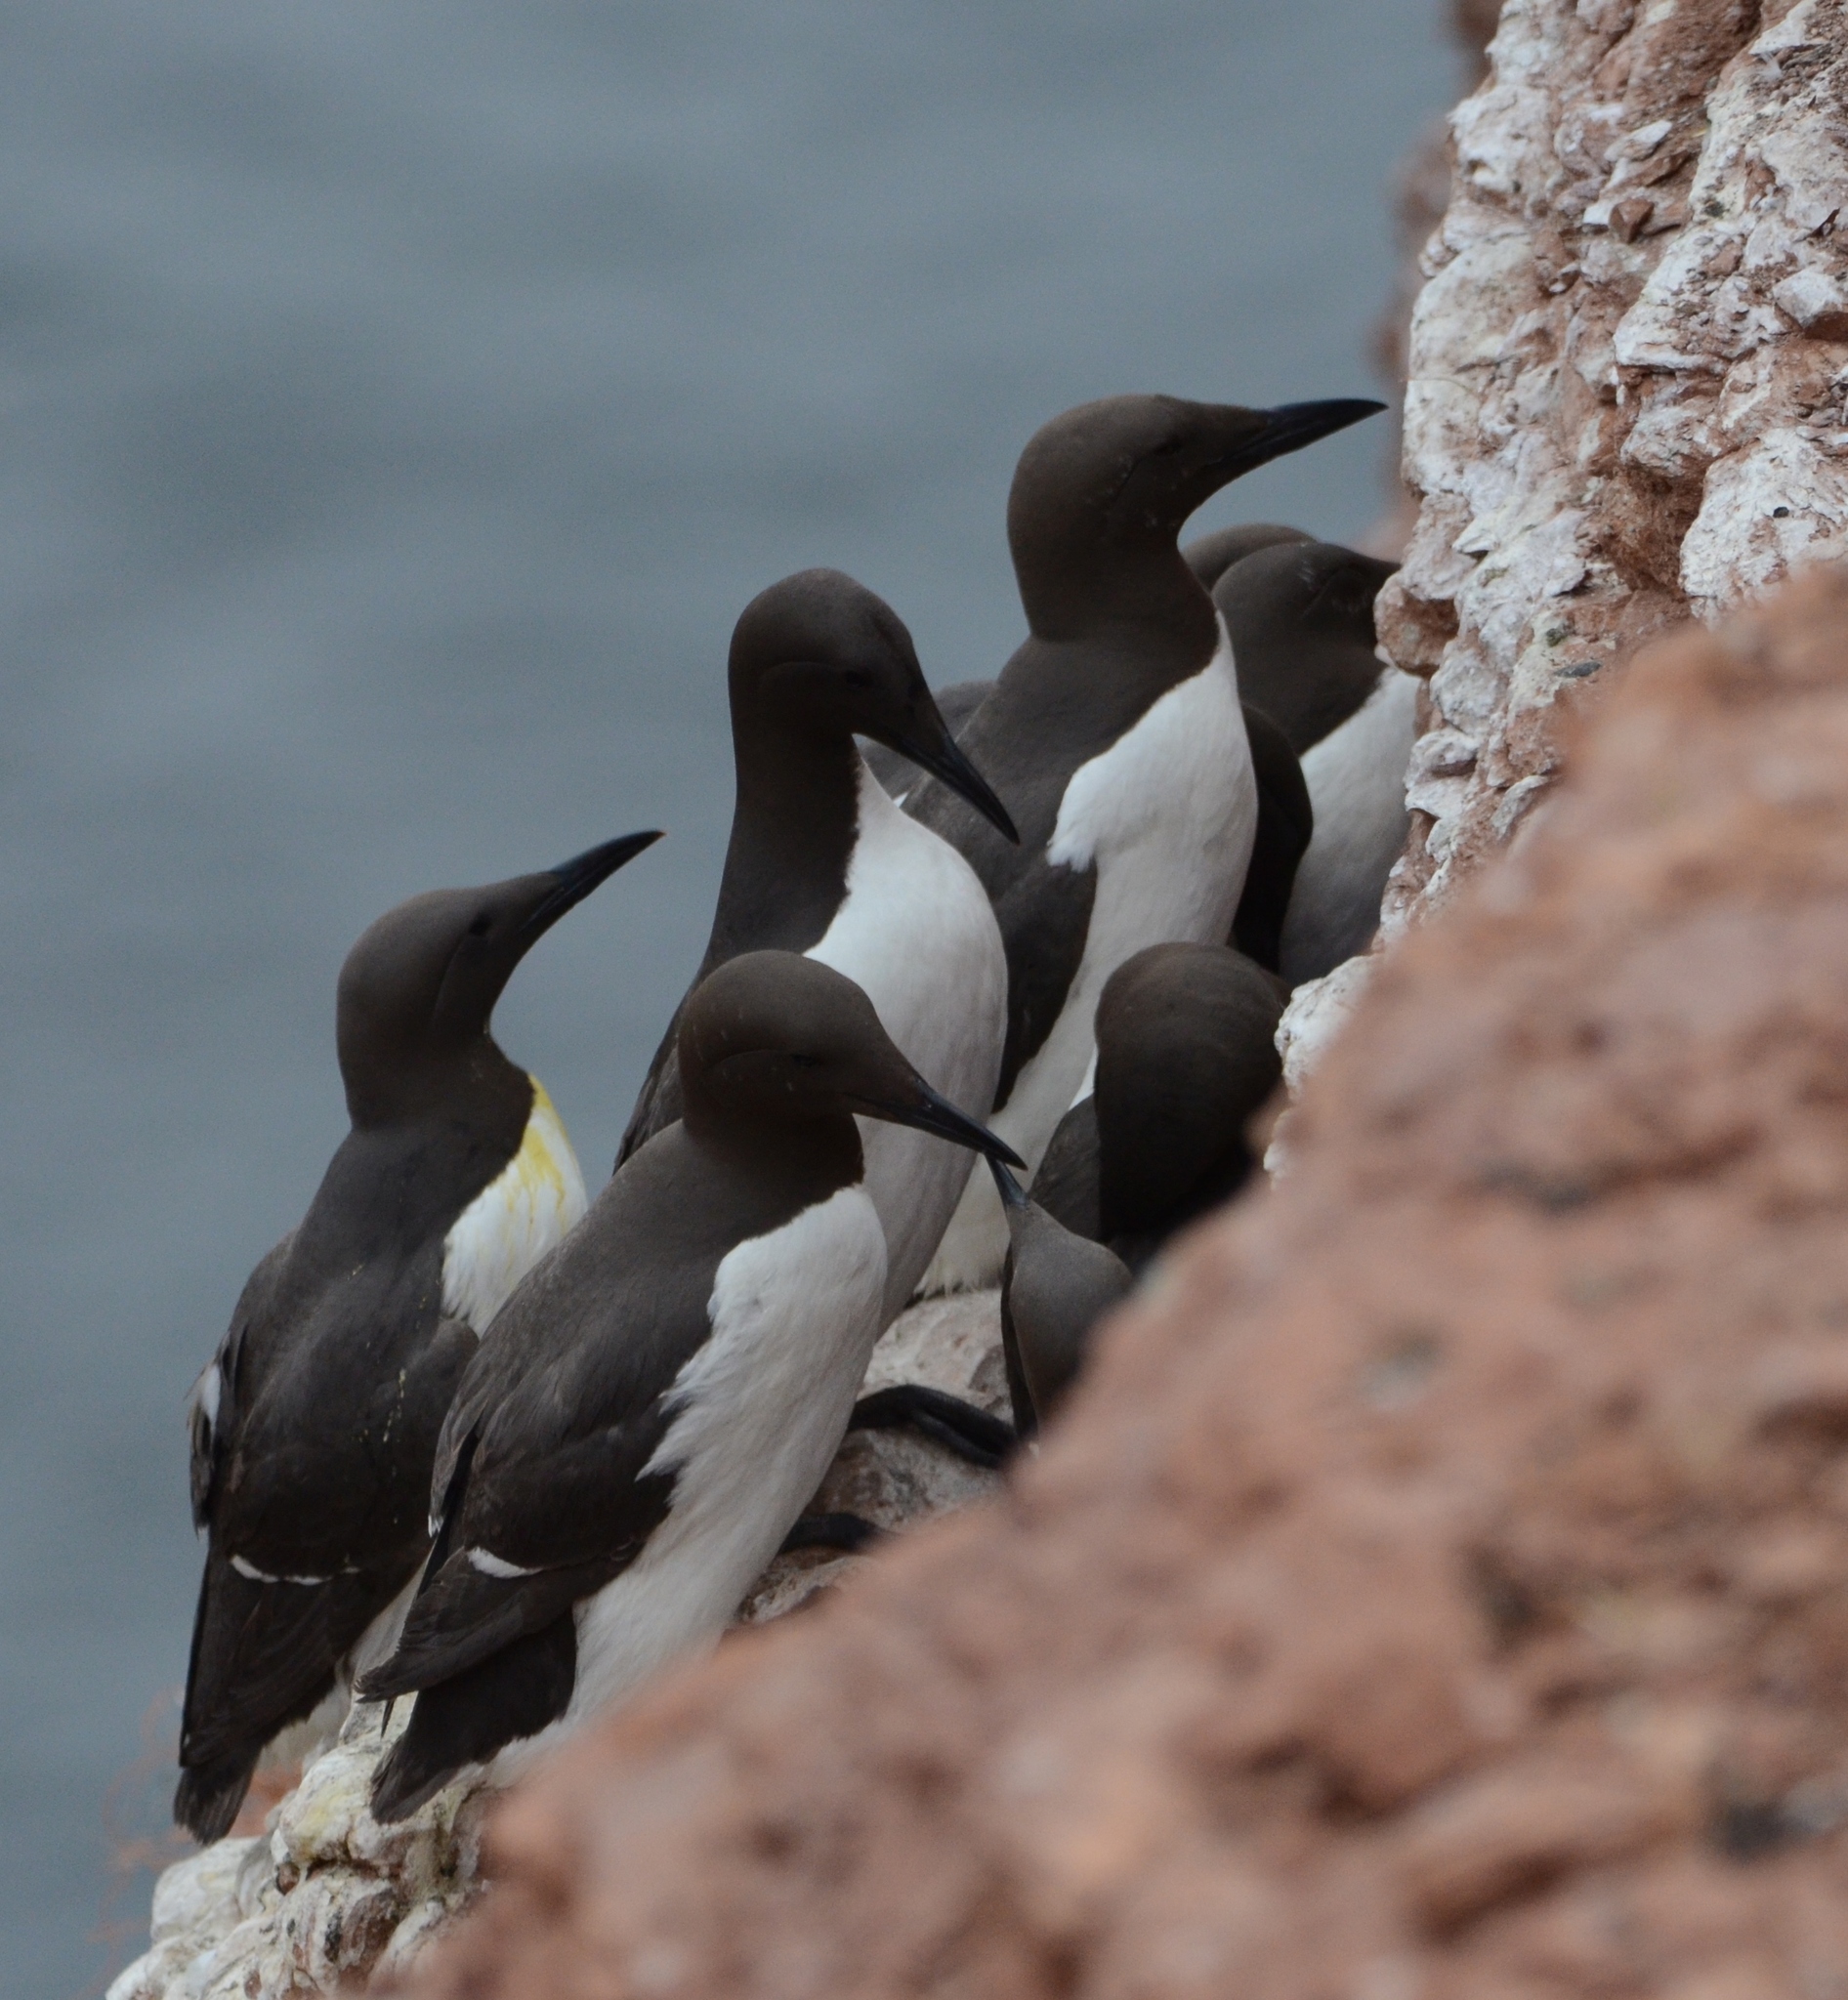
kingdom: Animalia
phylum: Chordata
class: Aves
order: Charadriiformes
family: Alcidae
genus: Uria
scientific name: Uria aalge
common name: Common murre
